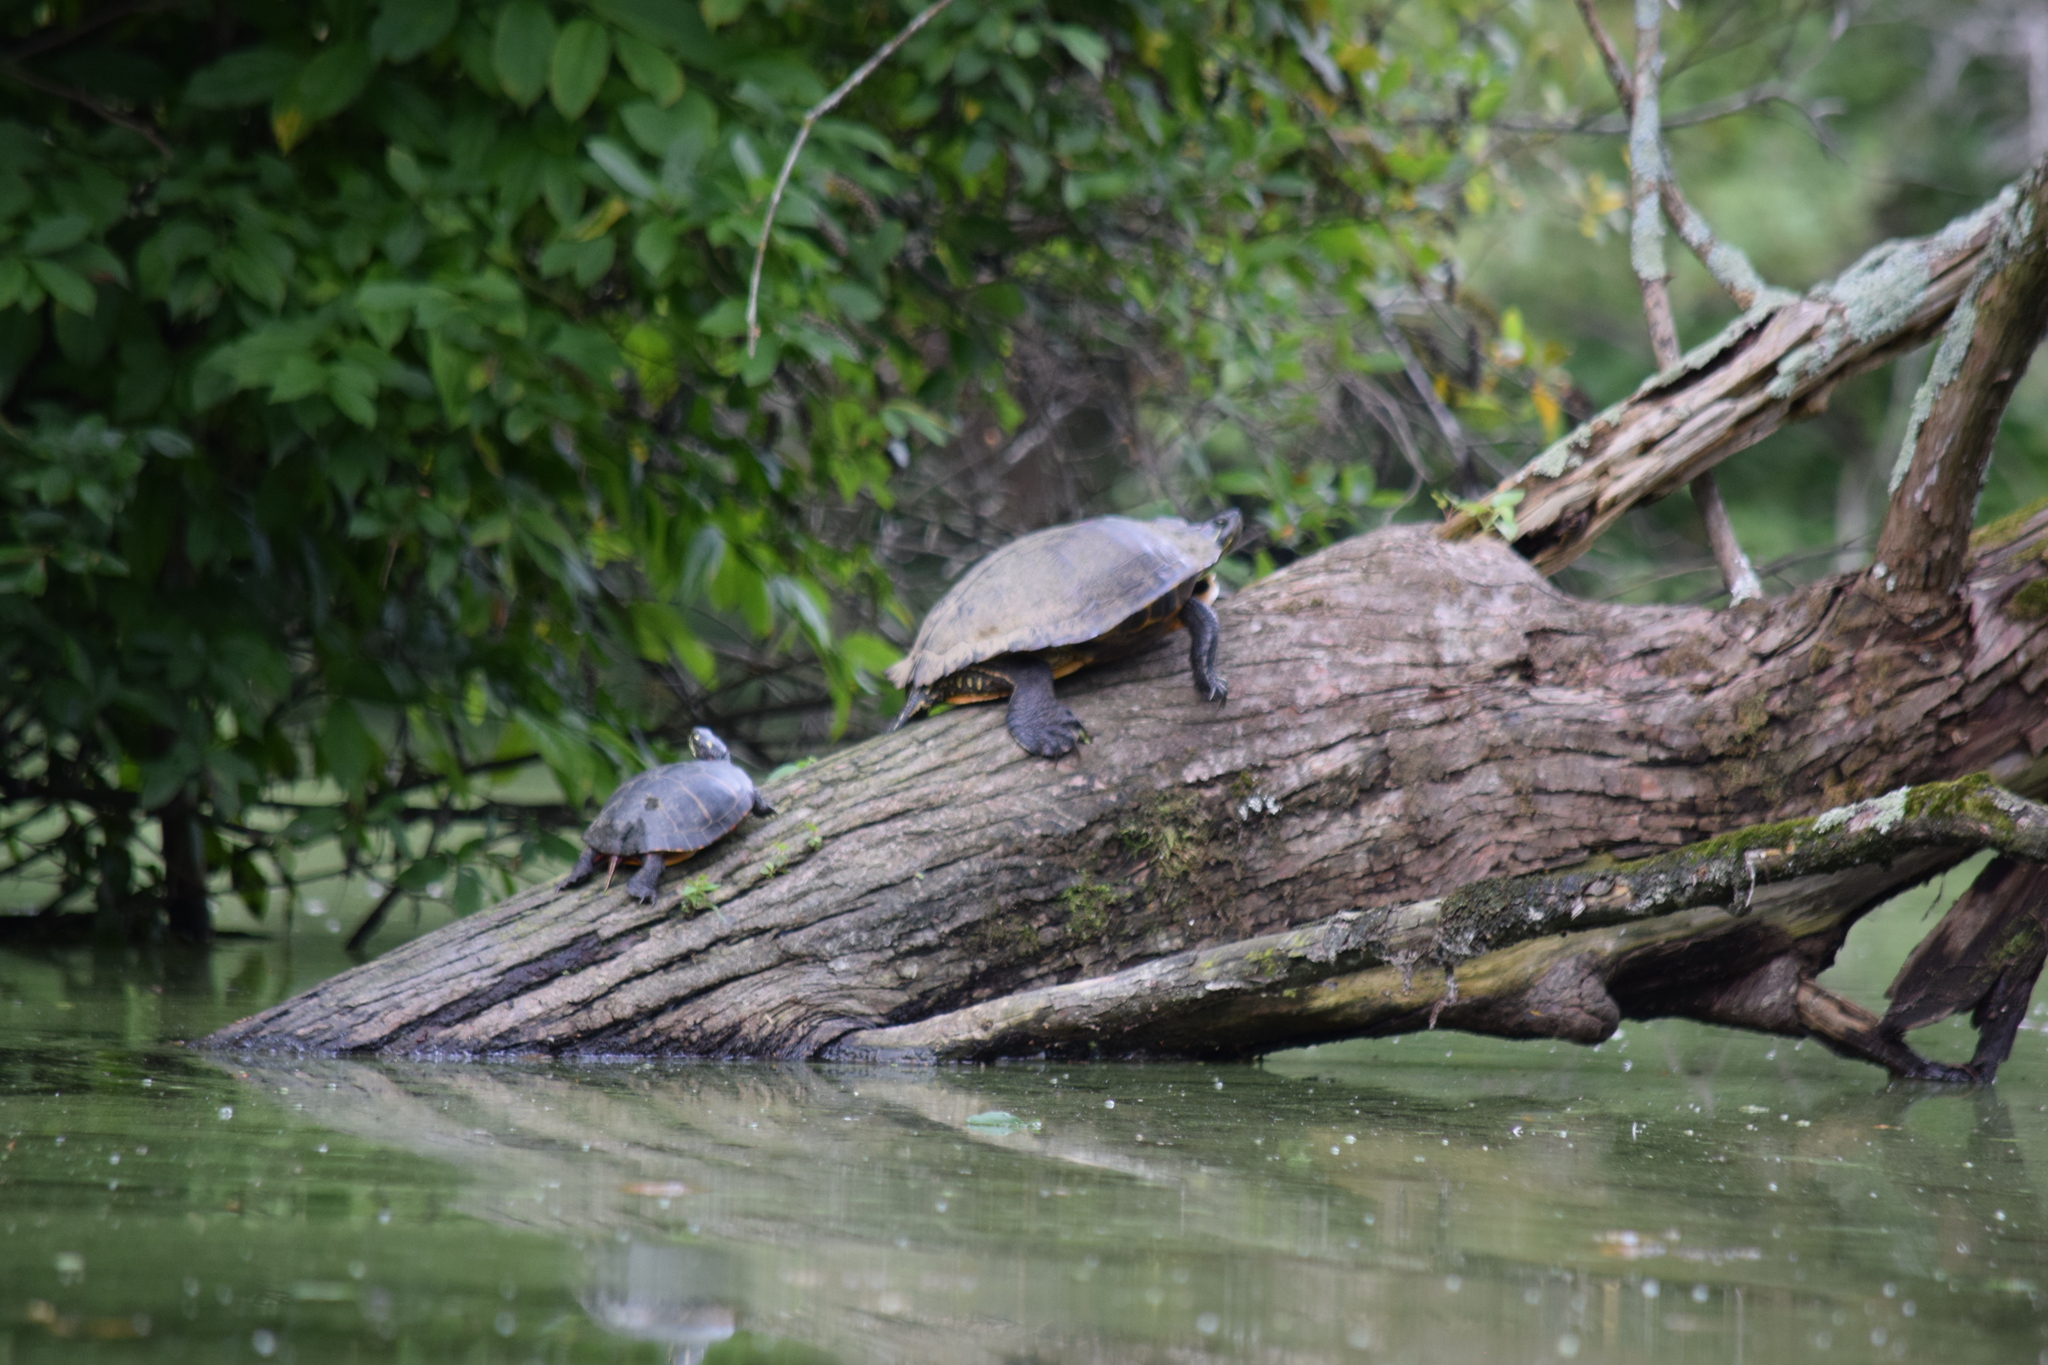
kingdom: Animalia
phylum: Chordata
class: Testudines
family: Emydidae
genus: Pseudemys
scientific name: Pseudemys rubriventris
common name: American red-bellied turtle
